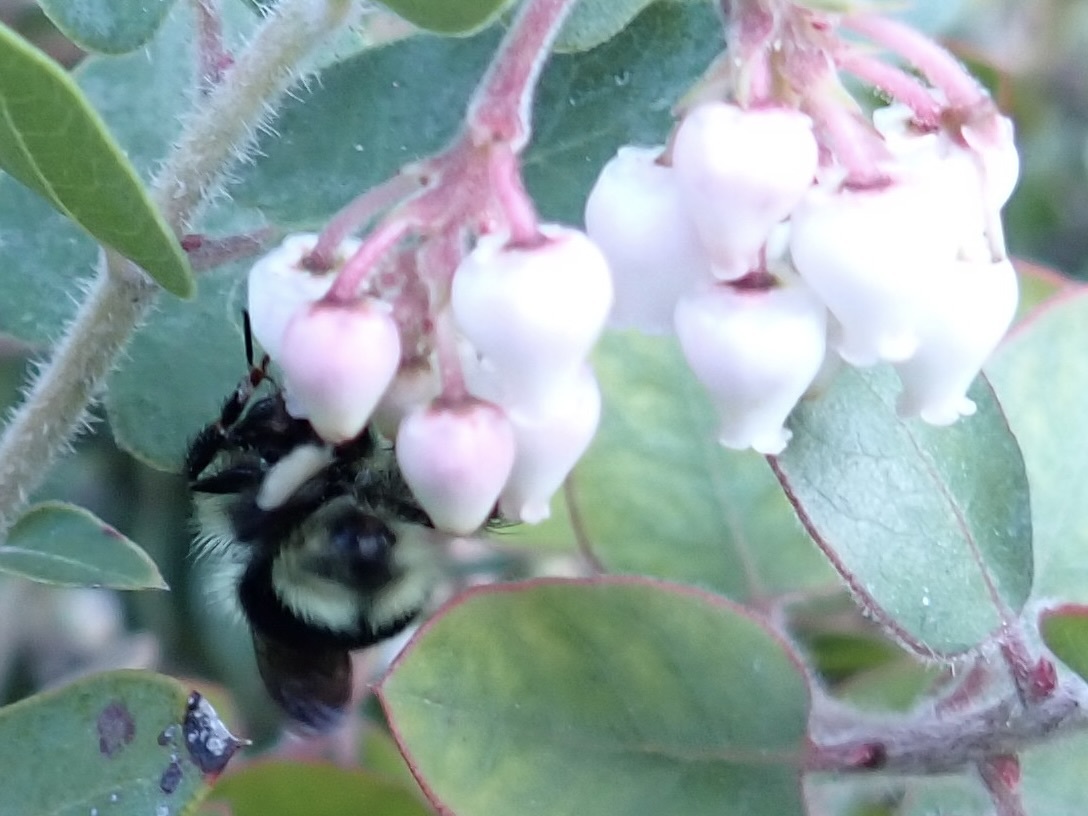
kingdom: Animalia
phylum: Arthropoda
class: Insecta
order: Hymenoptera
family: Apidae
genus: Bombus
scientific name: Bombus melanopygus
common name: Black tail bumble bee
